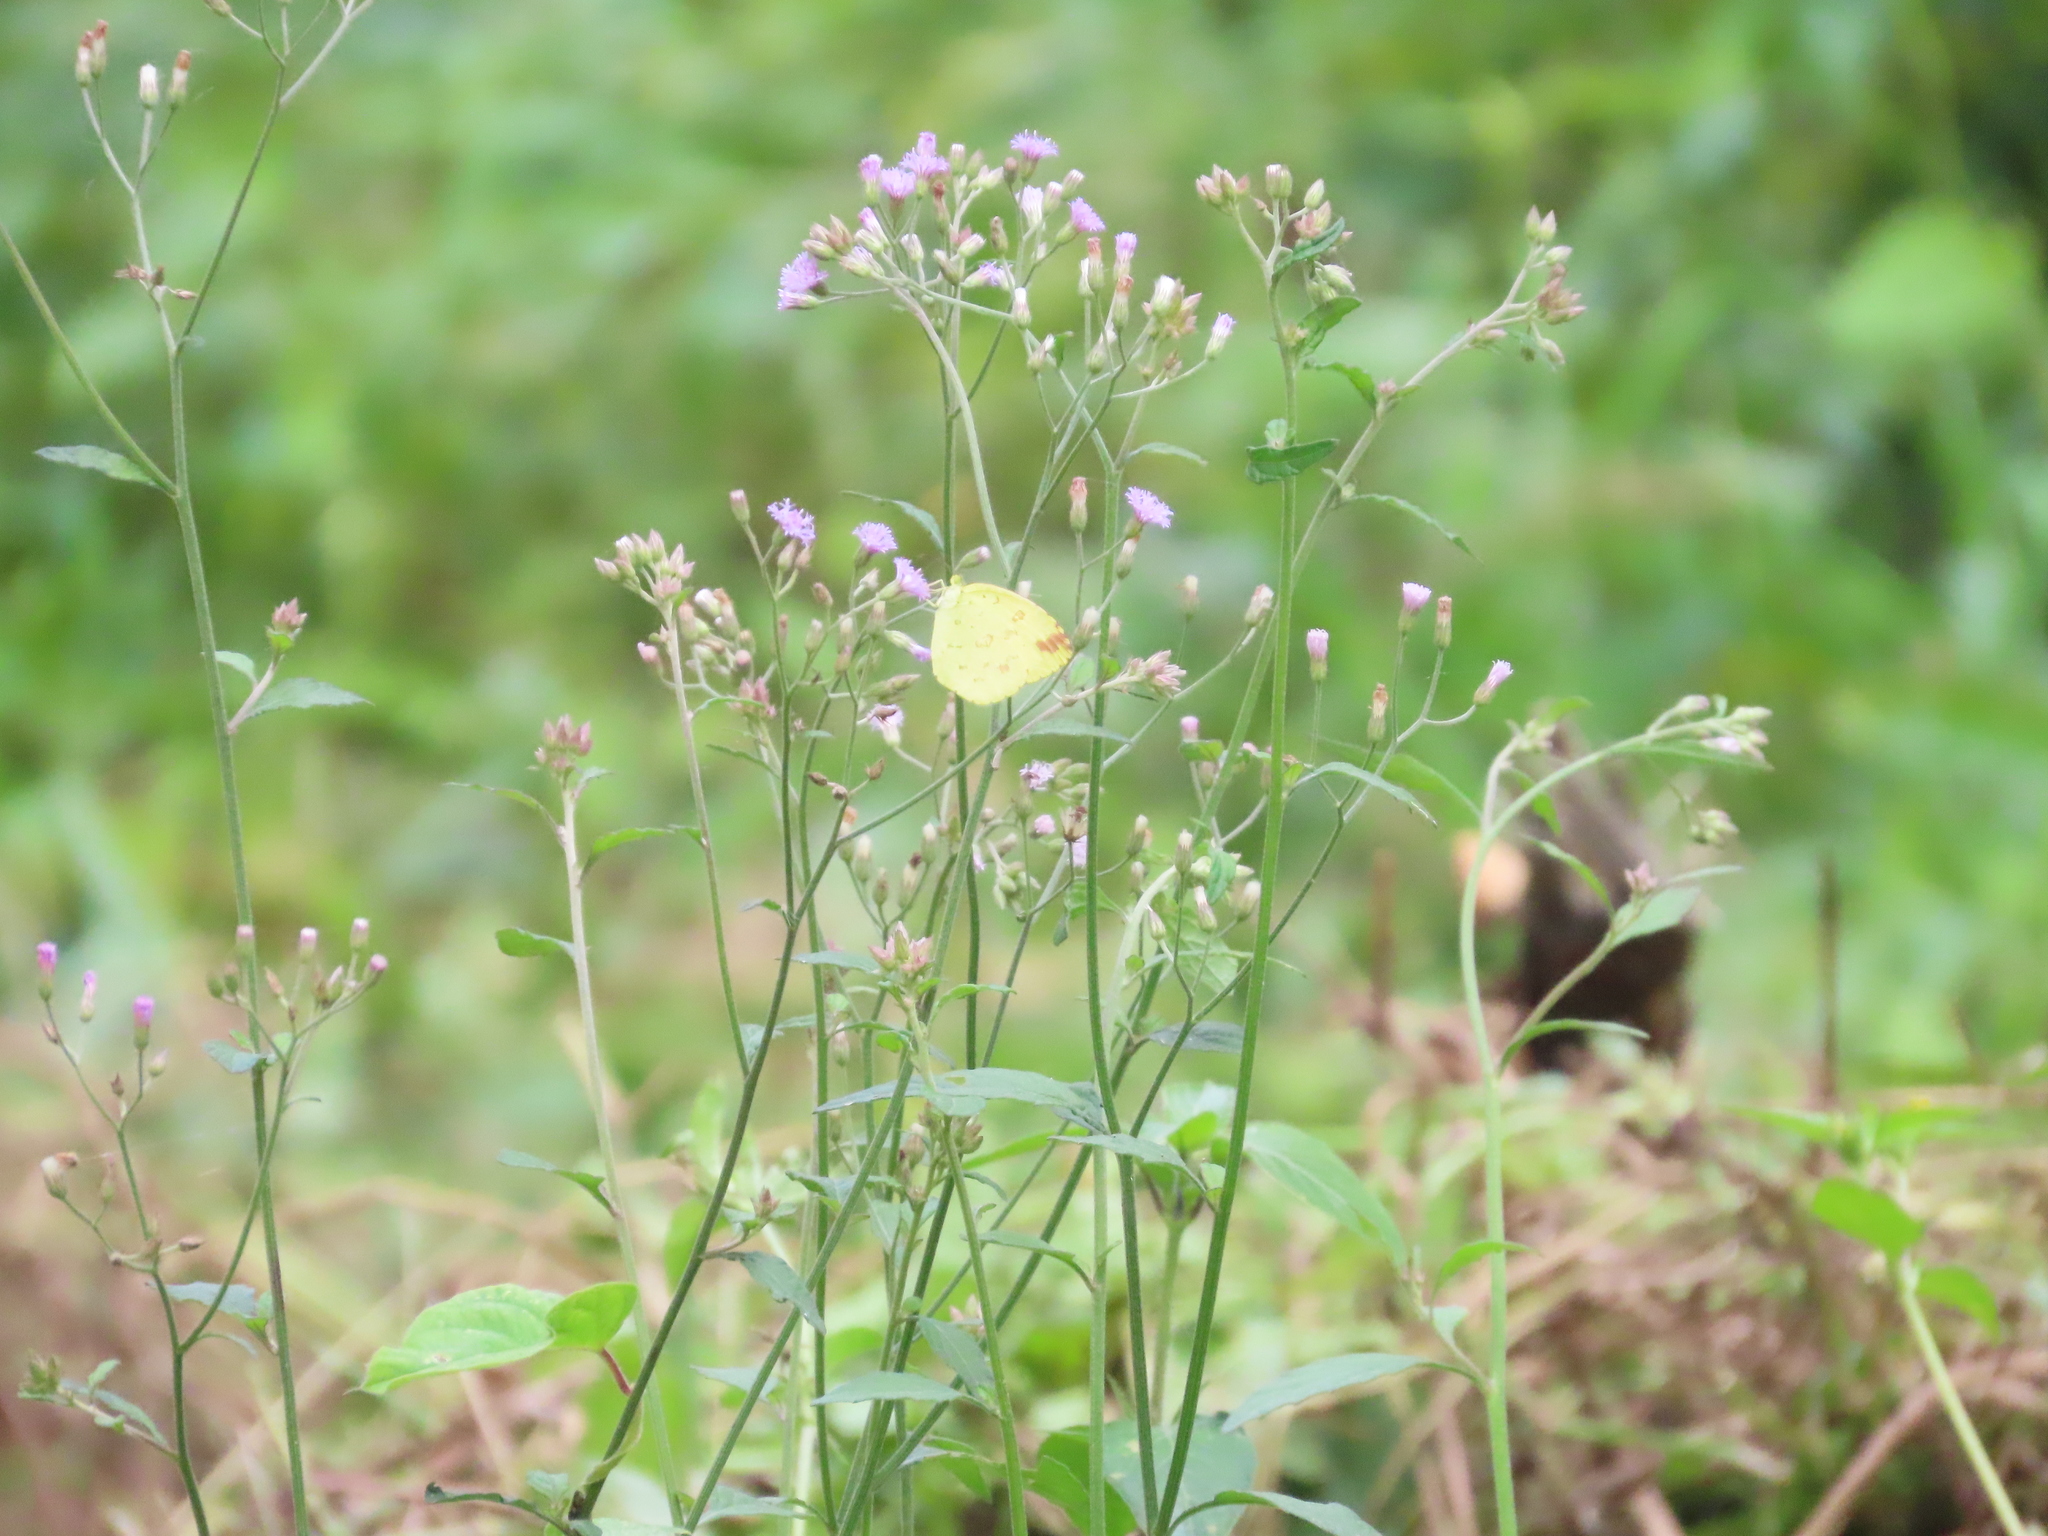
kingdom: Animalia
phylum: Arthropoda
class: Insecta
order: Lepidoptera
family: Pieridae
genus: Eurema
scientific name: Eurema hecabe
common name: Pale grass yellow
